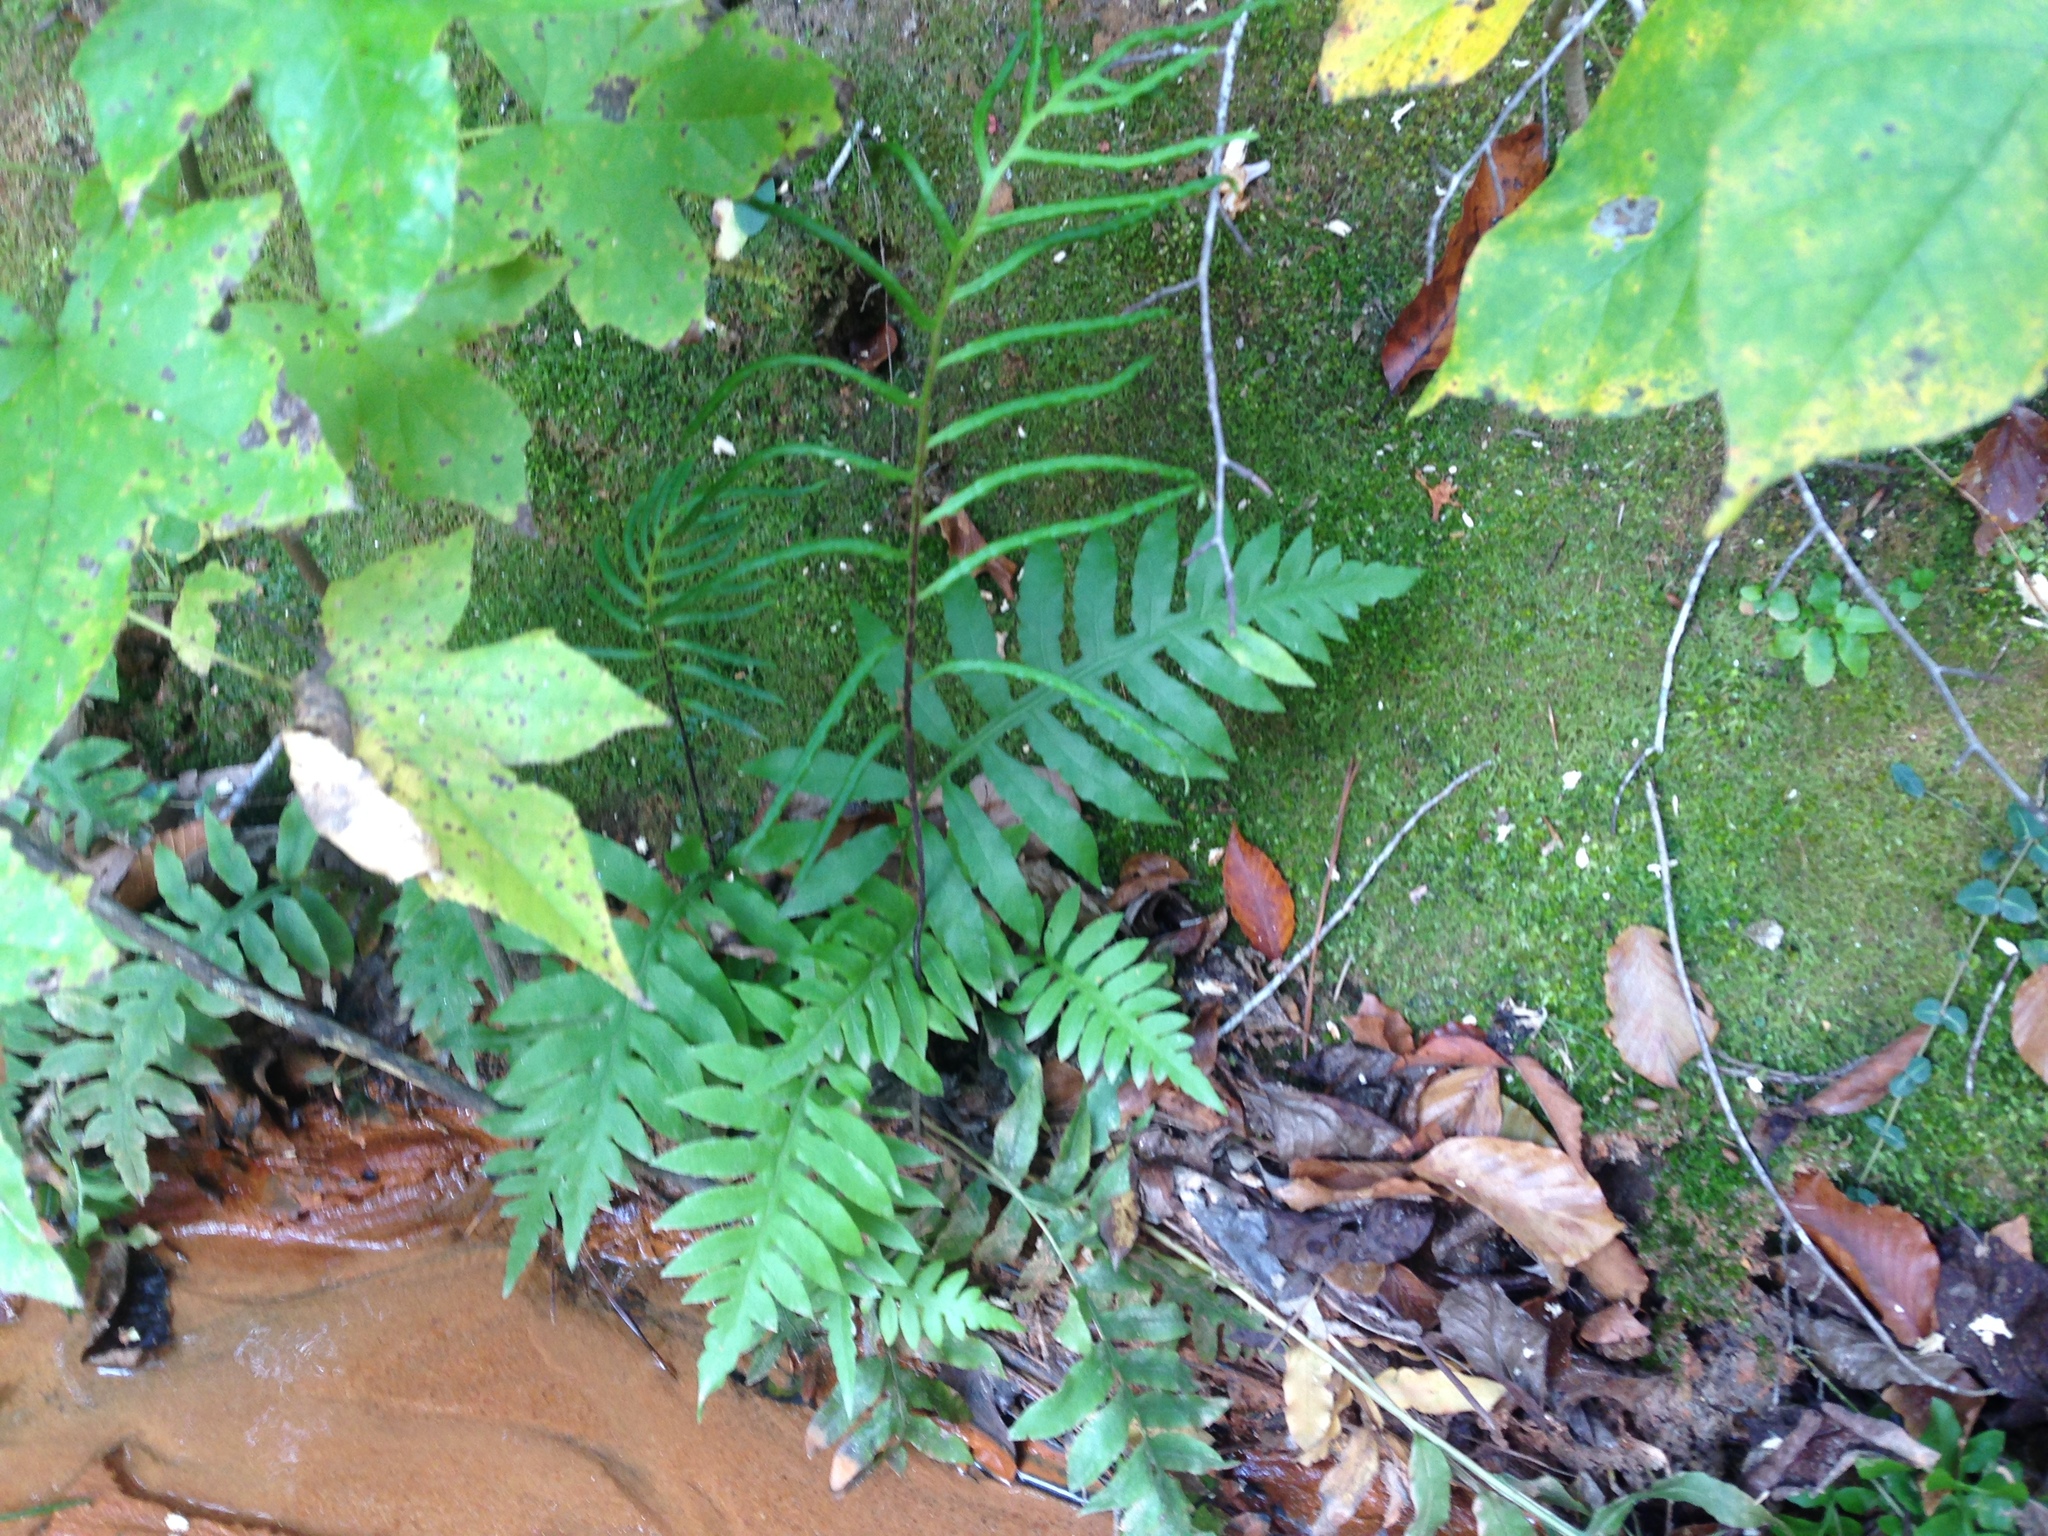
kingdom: Plantae
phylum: Tracheophyta
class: Polypodiopsida
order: Polypodiales
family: Blechnaceae
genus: Lorinseria
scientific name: Lorinseria areolata
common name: Dwarf chain fern
